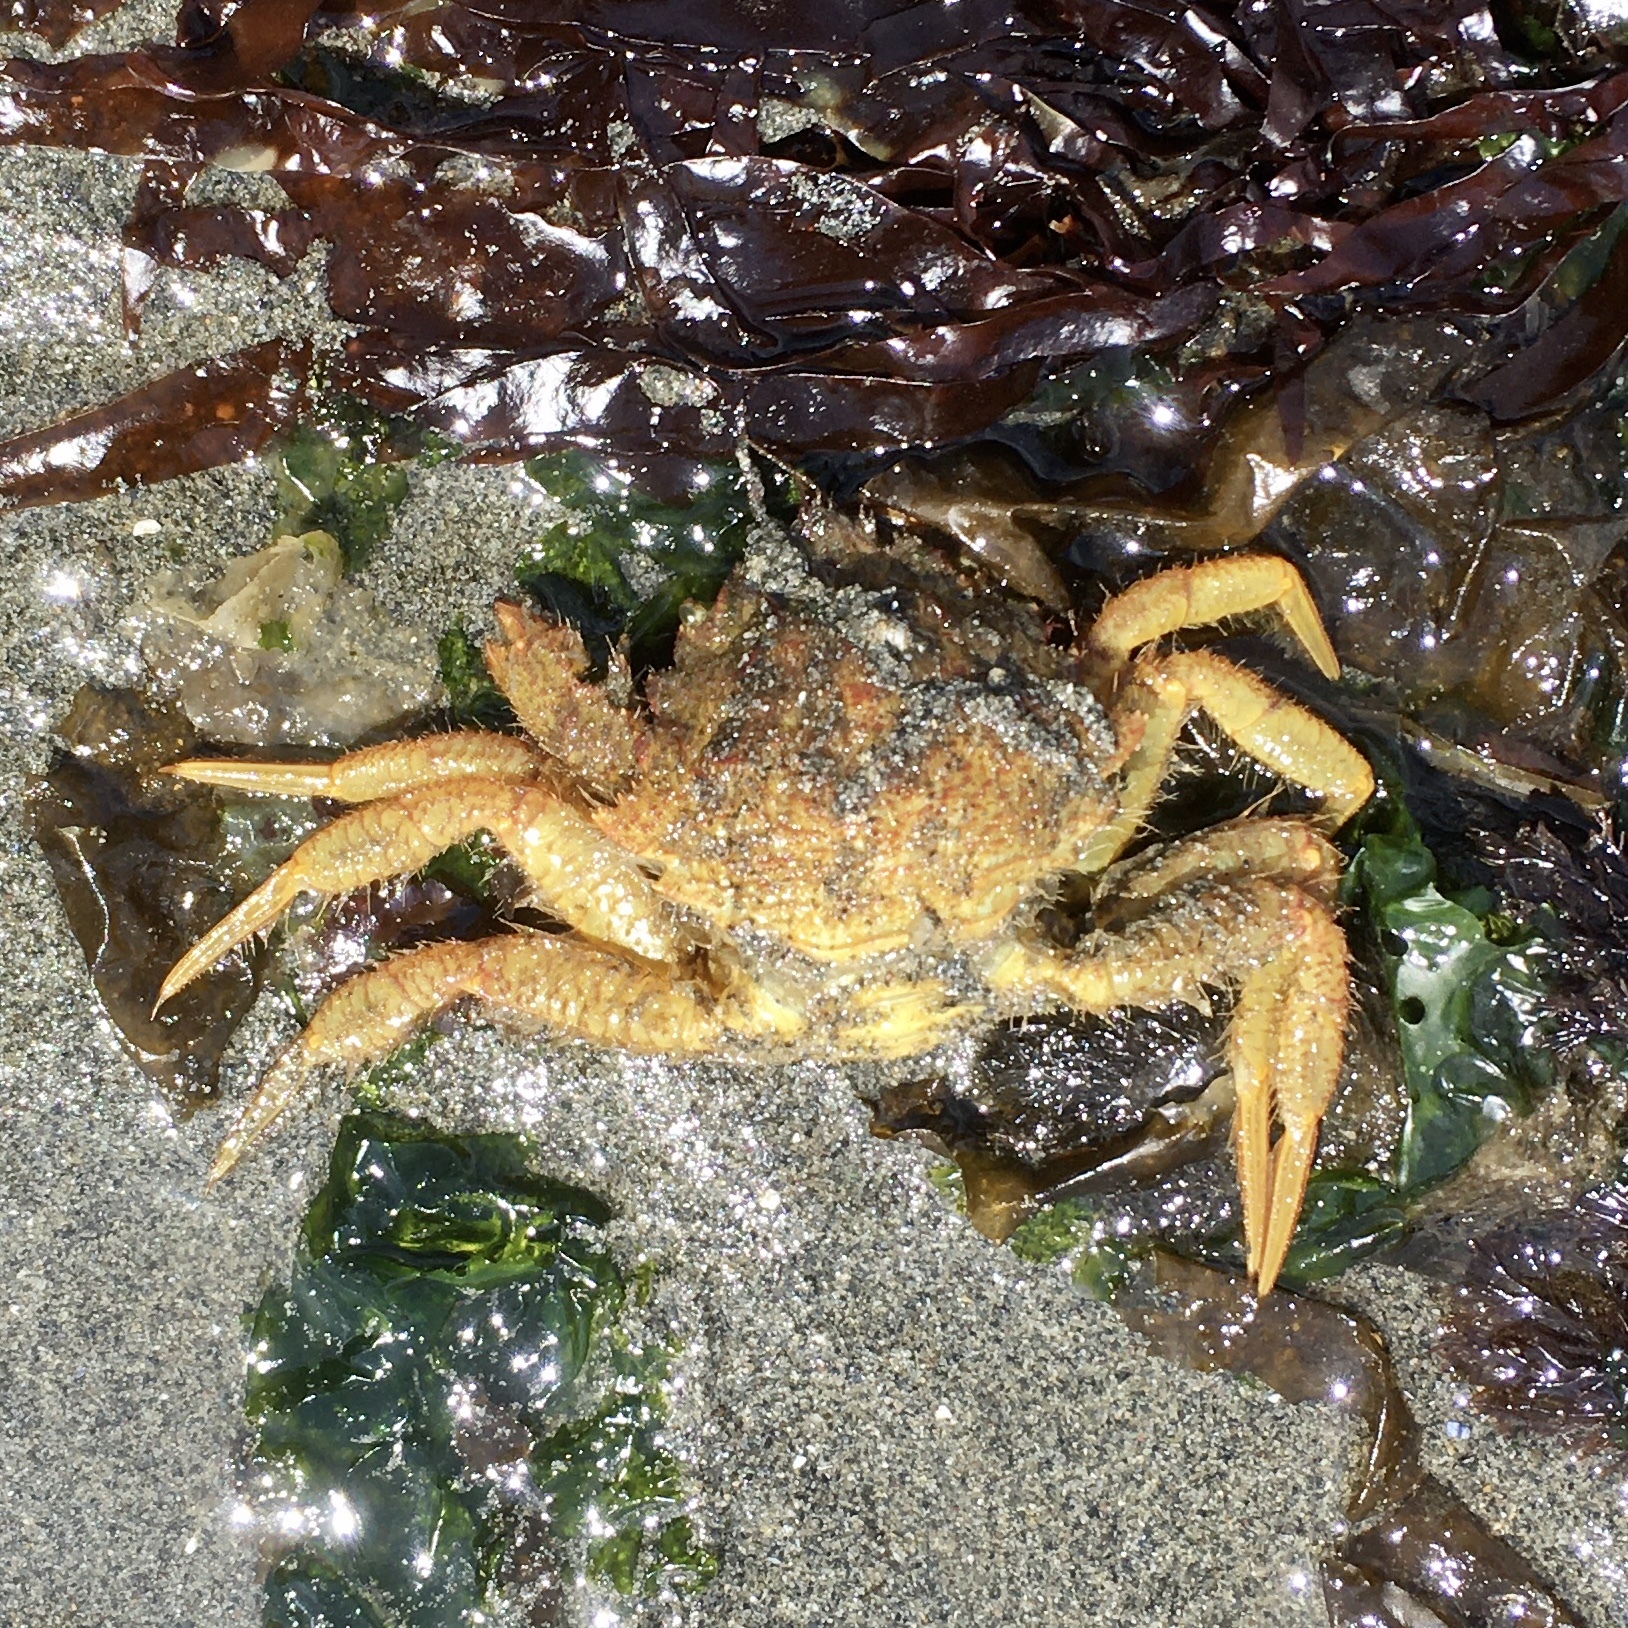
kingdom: Animalia
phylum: Arthropoda
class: Malacostraca
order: Decapoda
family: Cheiragonidae
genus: Telmessus
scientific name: Telmessus cheiragonus
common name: Helmet crab
